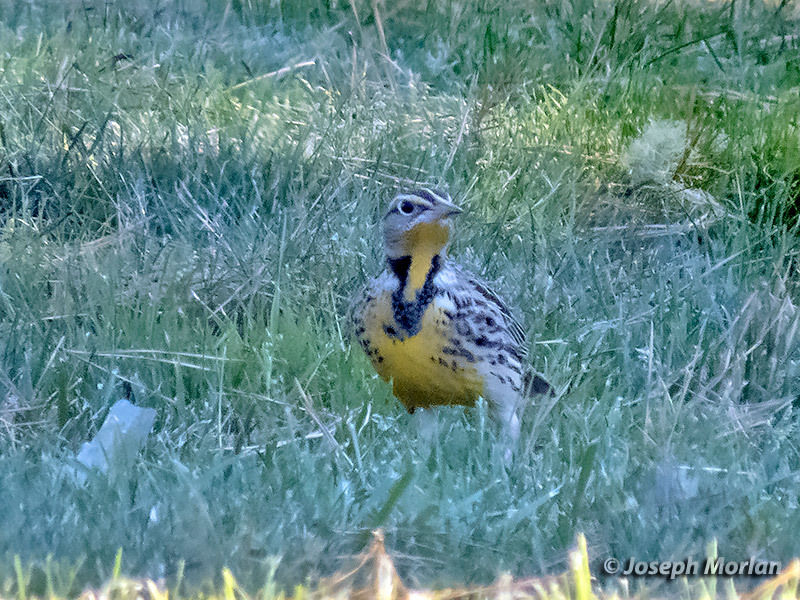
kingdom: Animalia
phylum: Chordata
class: Aves
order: Passeriformes
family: Icteridae
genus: Sturnella
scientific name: Sturnella neglecta
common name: Western meadowlark
